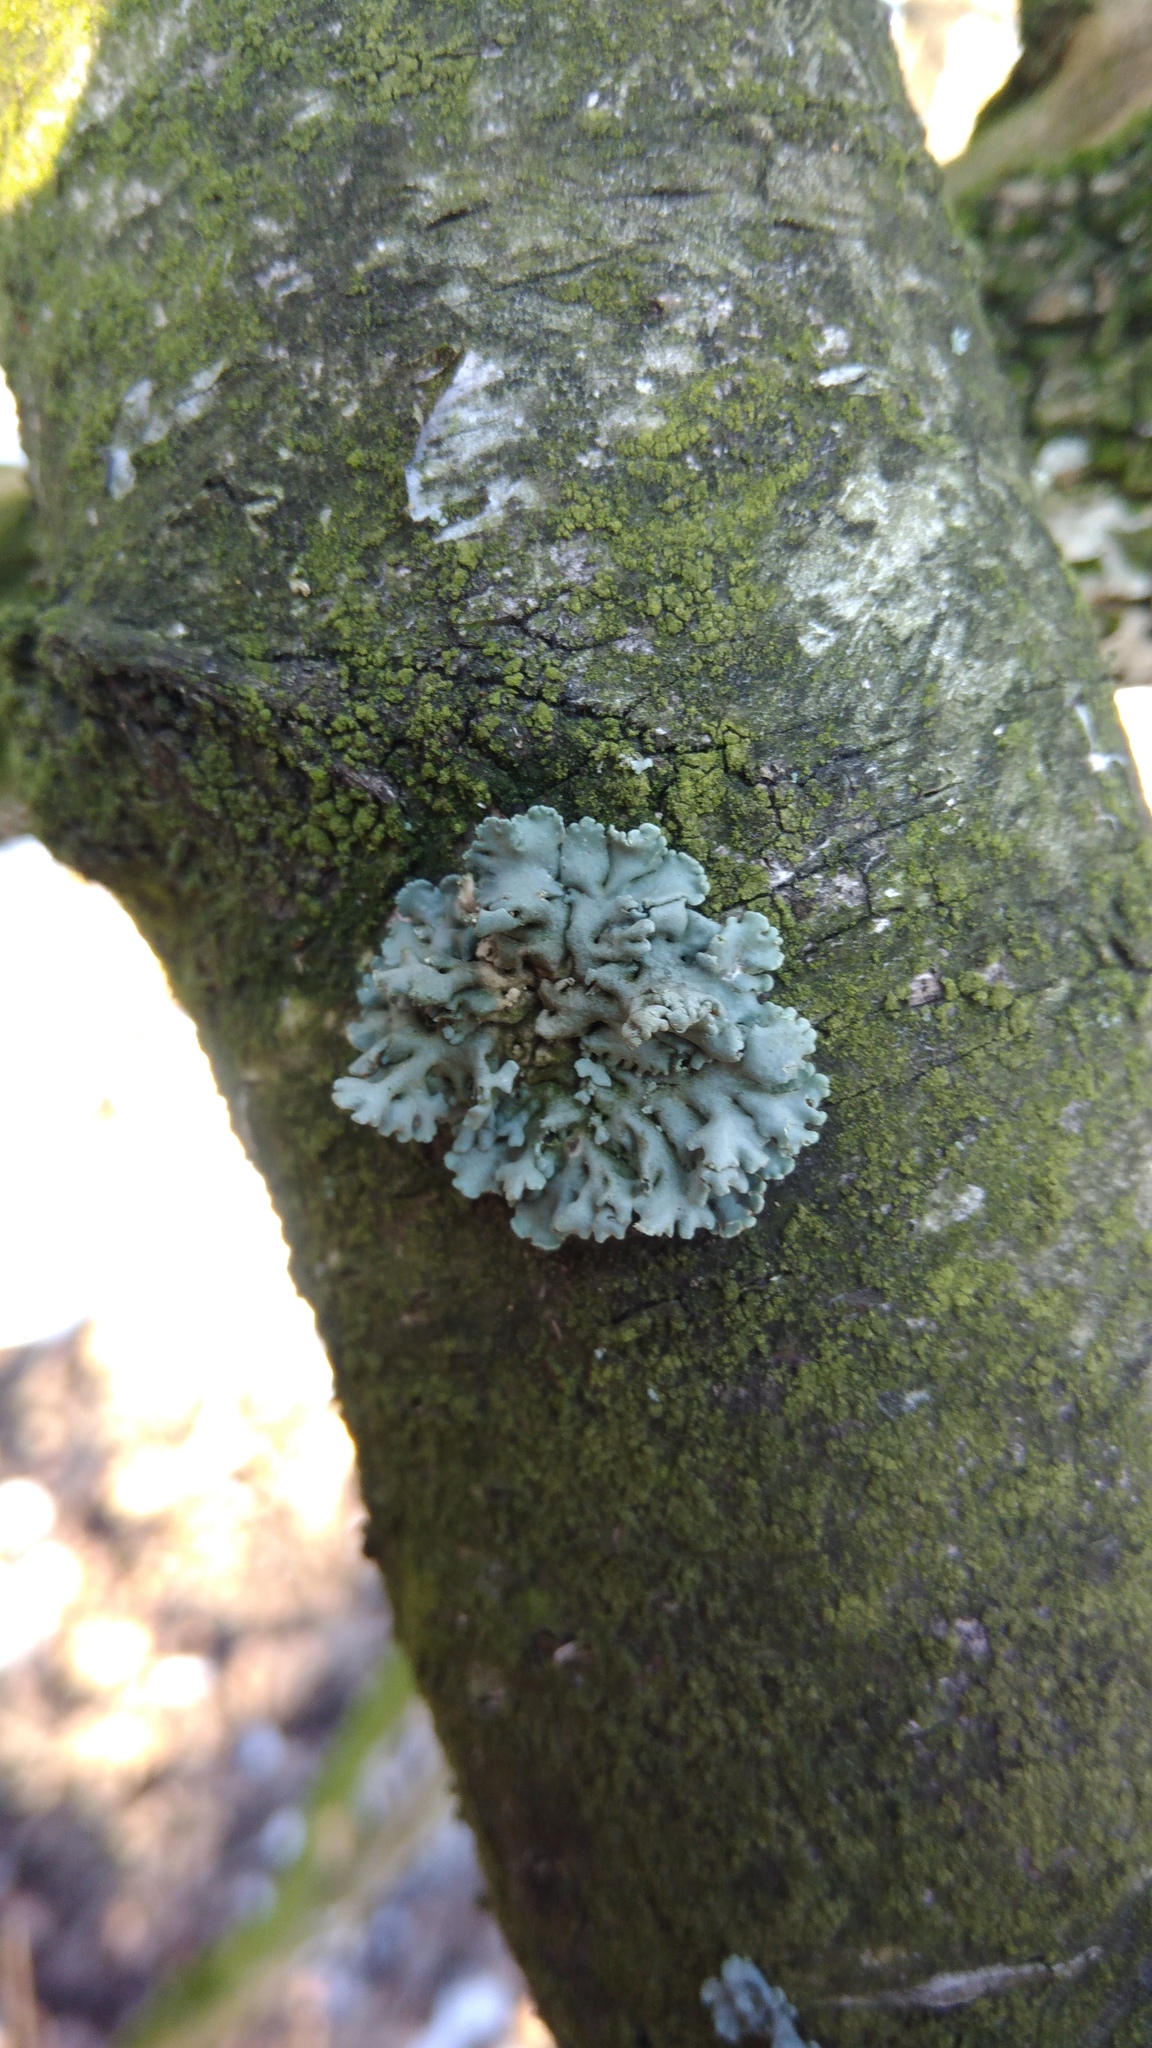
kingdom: Fungi
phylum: Ascomycota
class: Lecanoromycetes
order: Lecanorales
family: Parmeliaceae
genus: Hypogymnia
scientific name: Hypogymnia physodes
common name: Dark crottle
